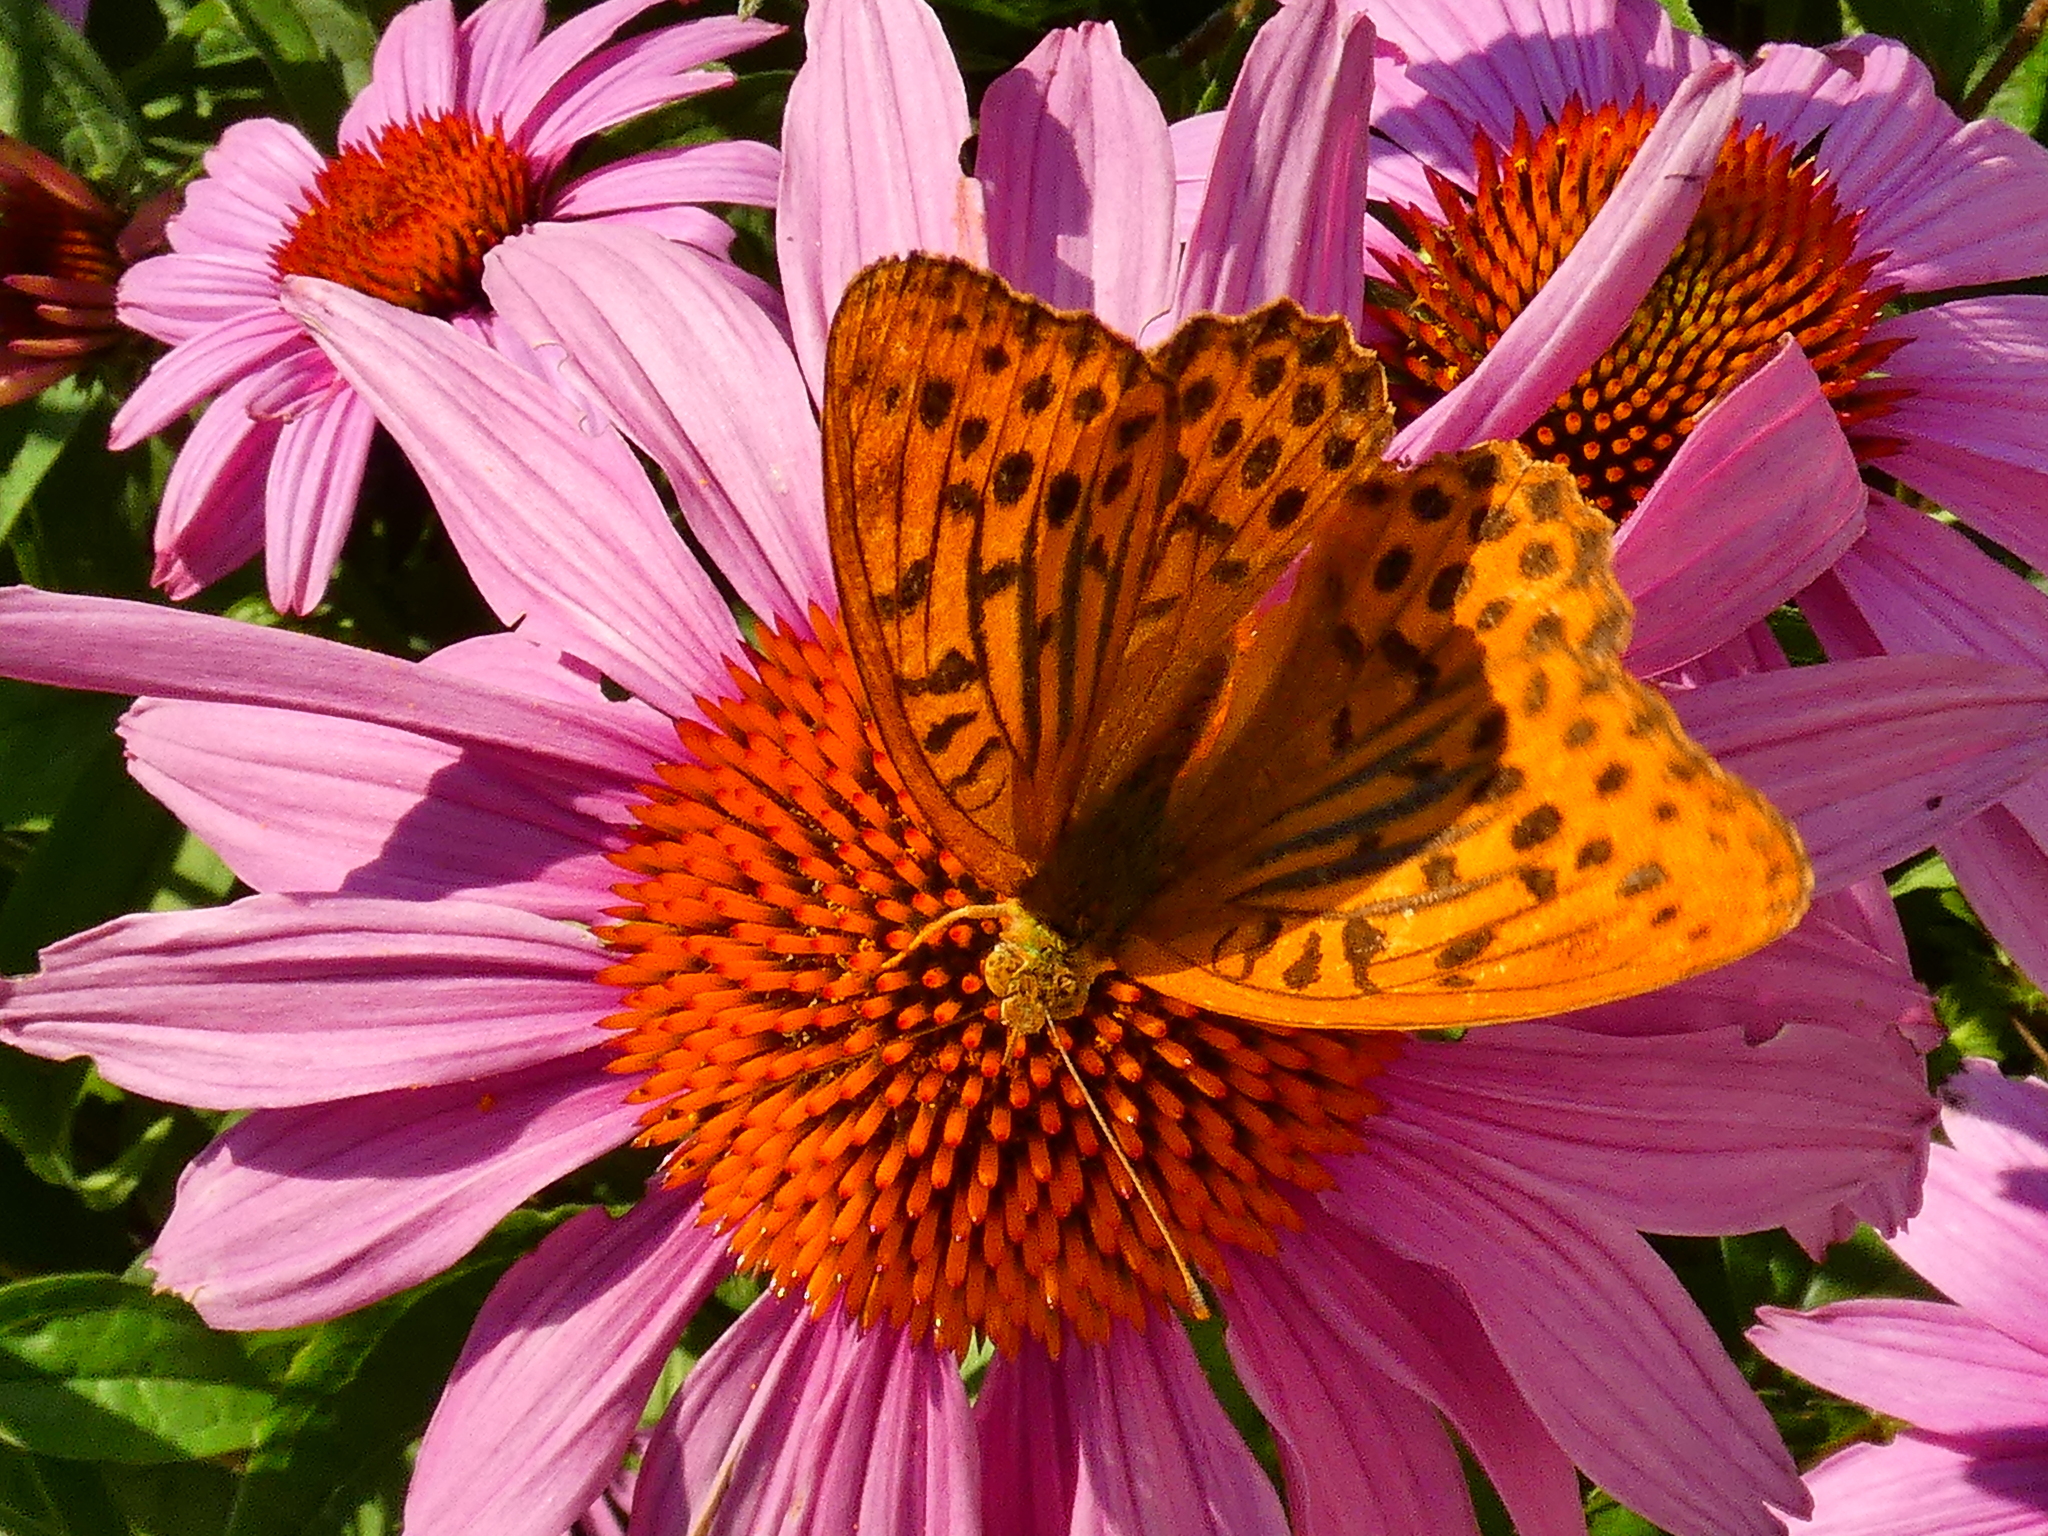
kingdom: Animalia
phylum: Arthropoda
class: Insecta
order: Lepidoptera
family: Nymphalidae
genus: Argynnis
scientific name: Argynnis paphia
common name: Silver-washed fritillary
